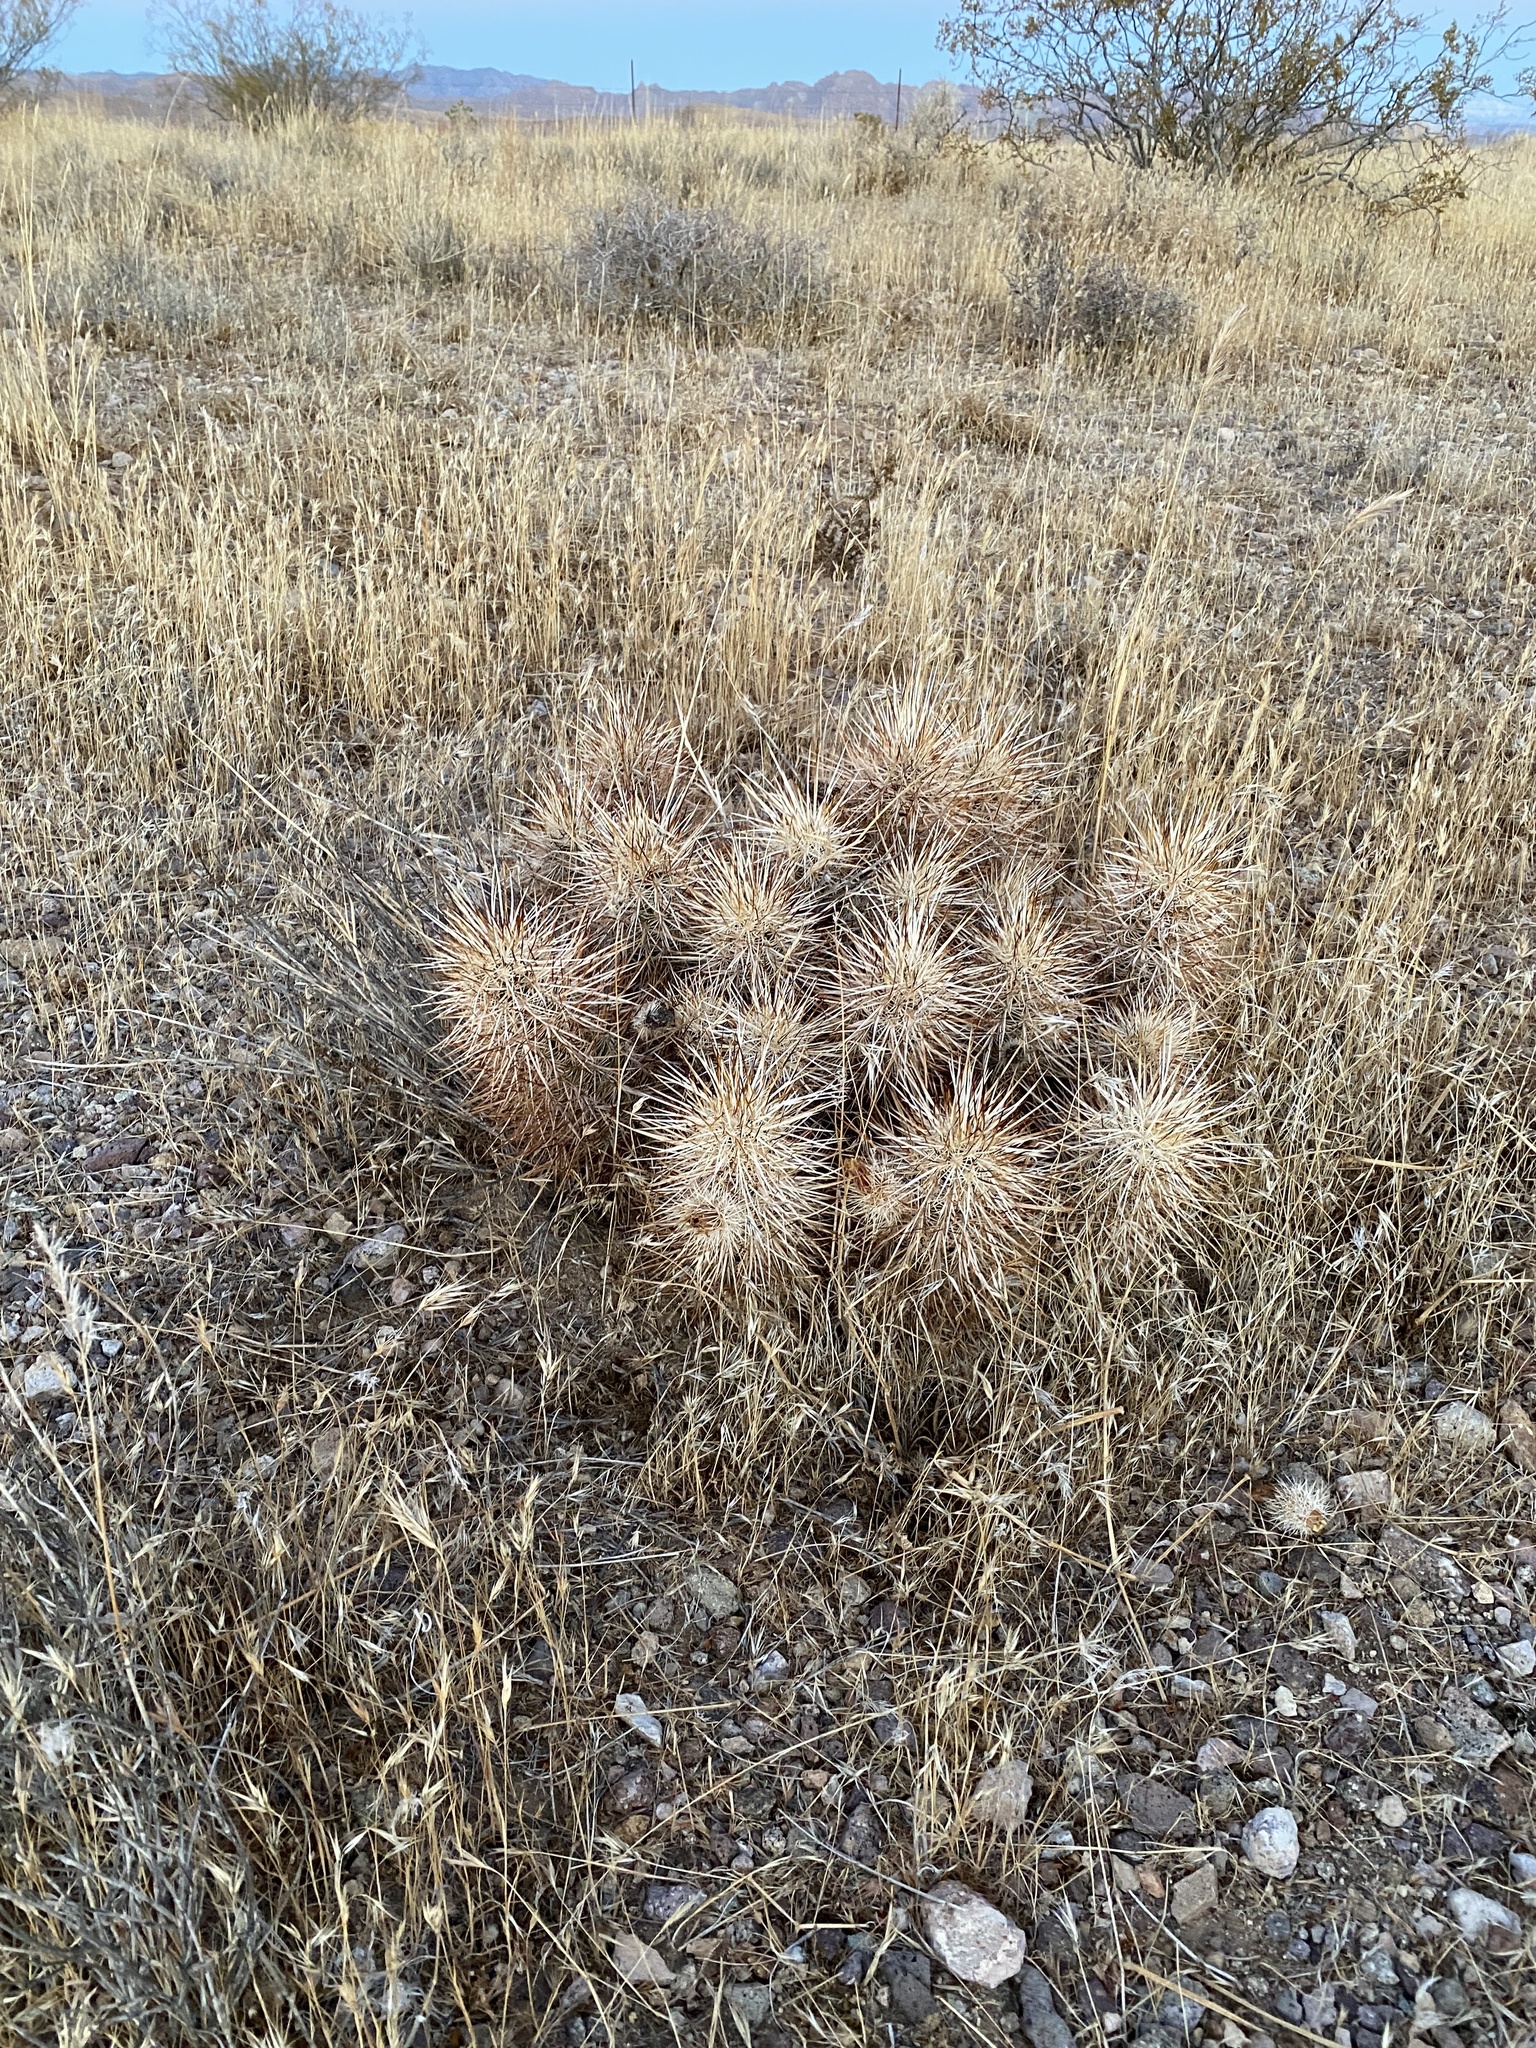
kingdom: Plantae
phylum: Tracheophyta
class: Magnoliopsida
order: Caryophyllales
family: Cactaceae
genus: Echinocereus
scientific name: Echinocereus engelmannii
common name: Engelmann's hedgehog cactus
